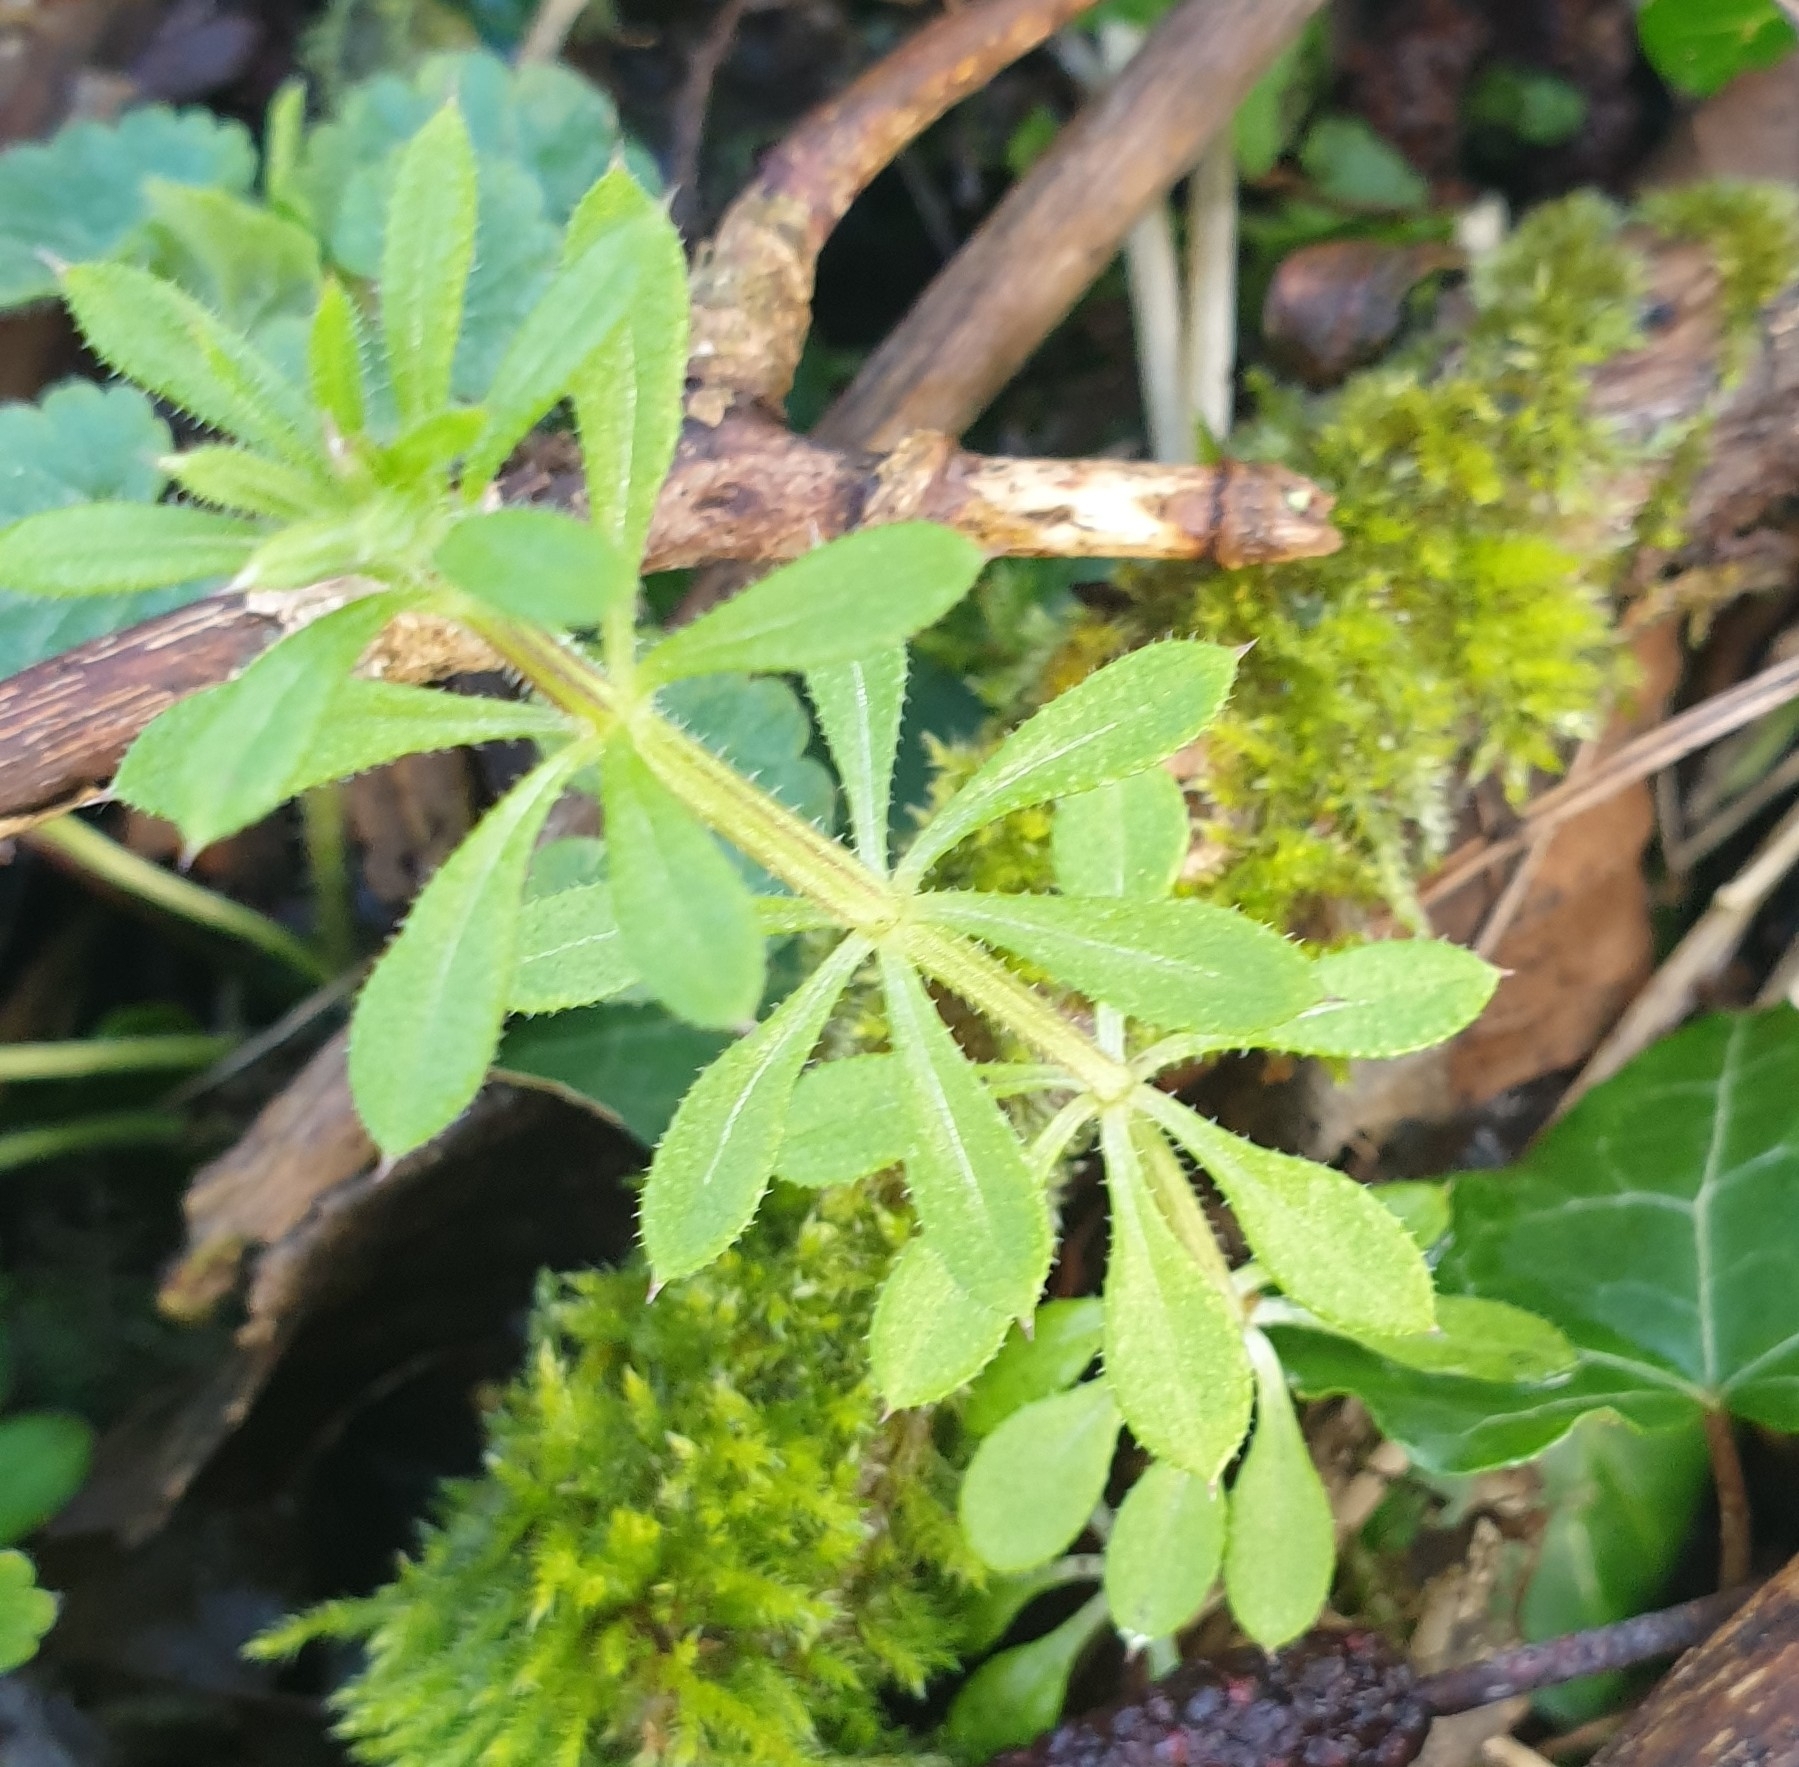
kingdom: Plantae
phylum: Tracheophyta
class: Magnoliopsida
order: Gentianales
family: Rubiaceae
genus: Galium
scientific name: Galium aparine
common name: Cleavers
